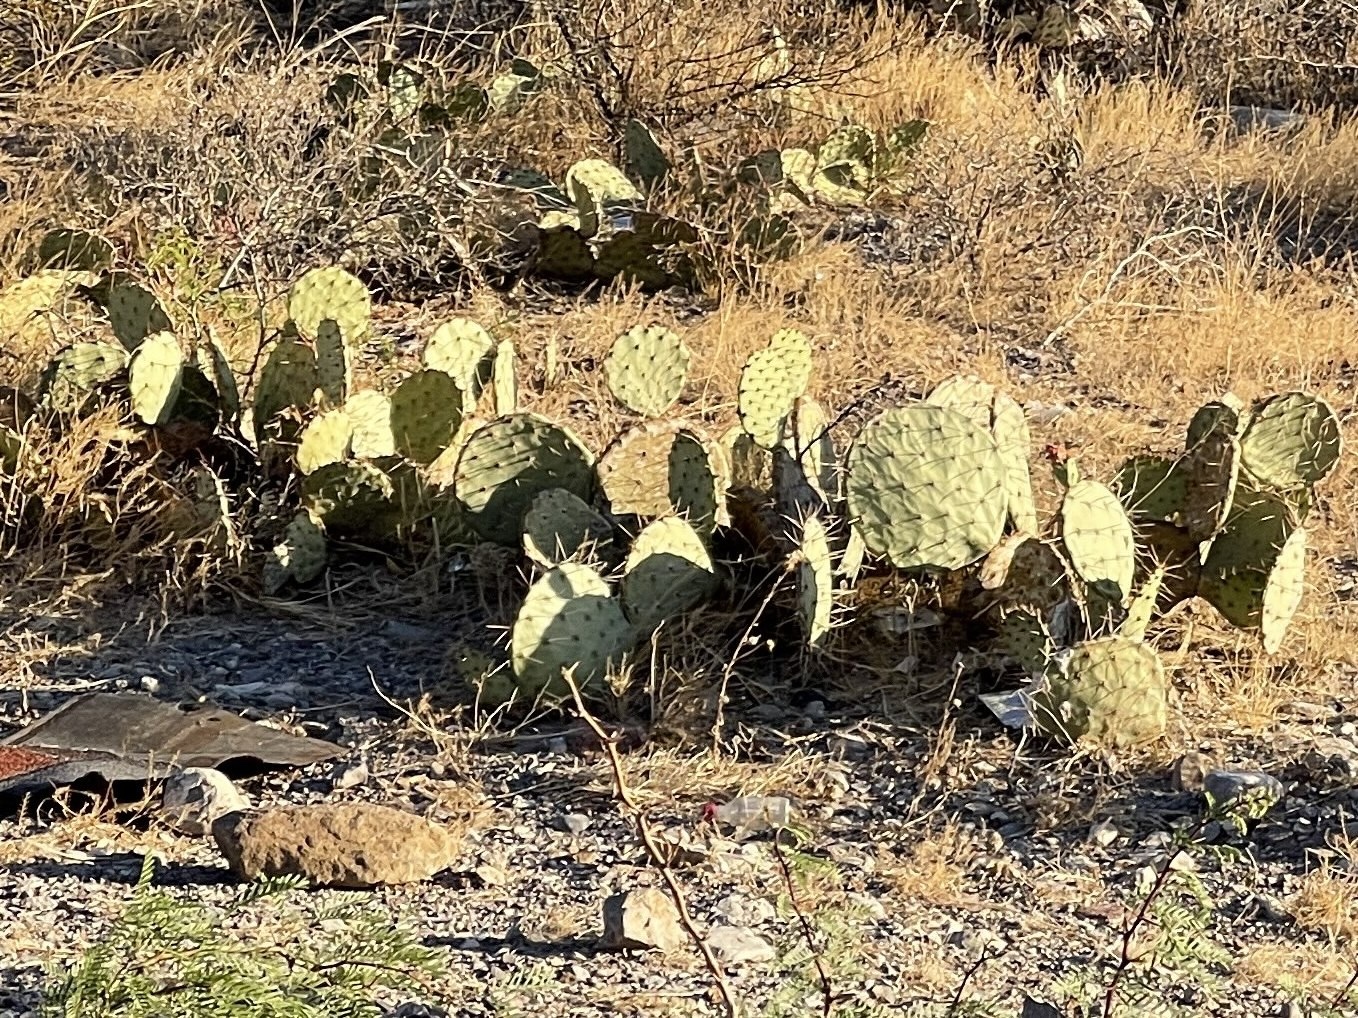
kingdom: Plantae
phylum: Tracheophyta
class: Magnoliopsida
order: Caryophyllales
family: Cactaceae
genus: Opuntia
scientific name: Opuntia engelmannii
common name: Cactus-apple
